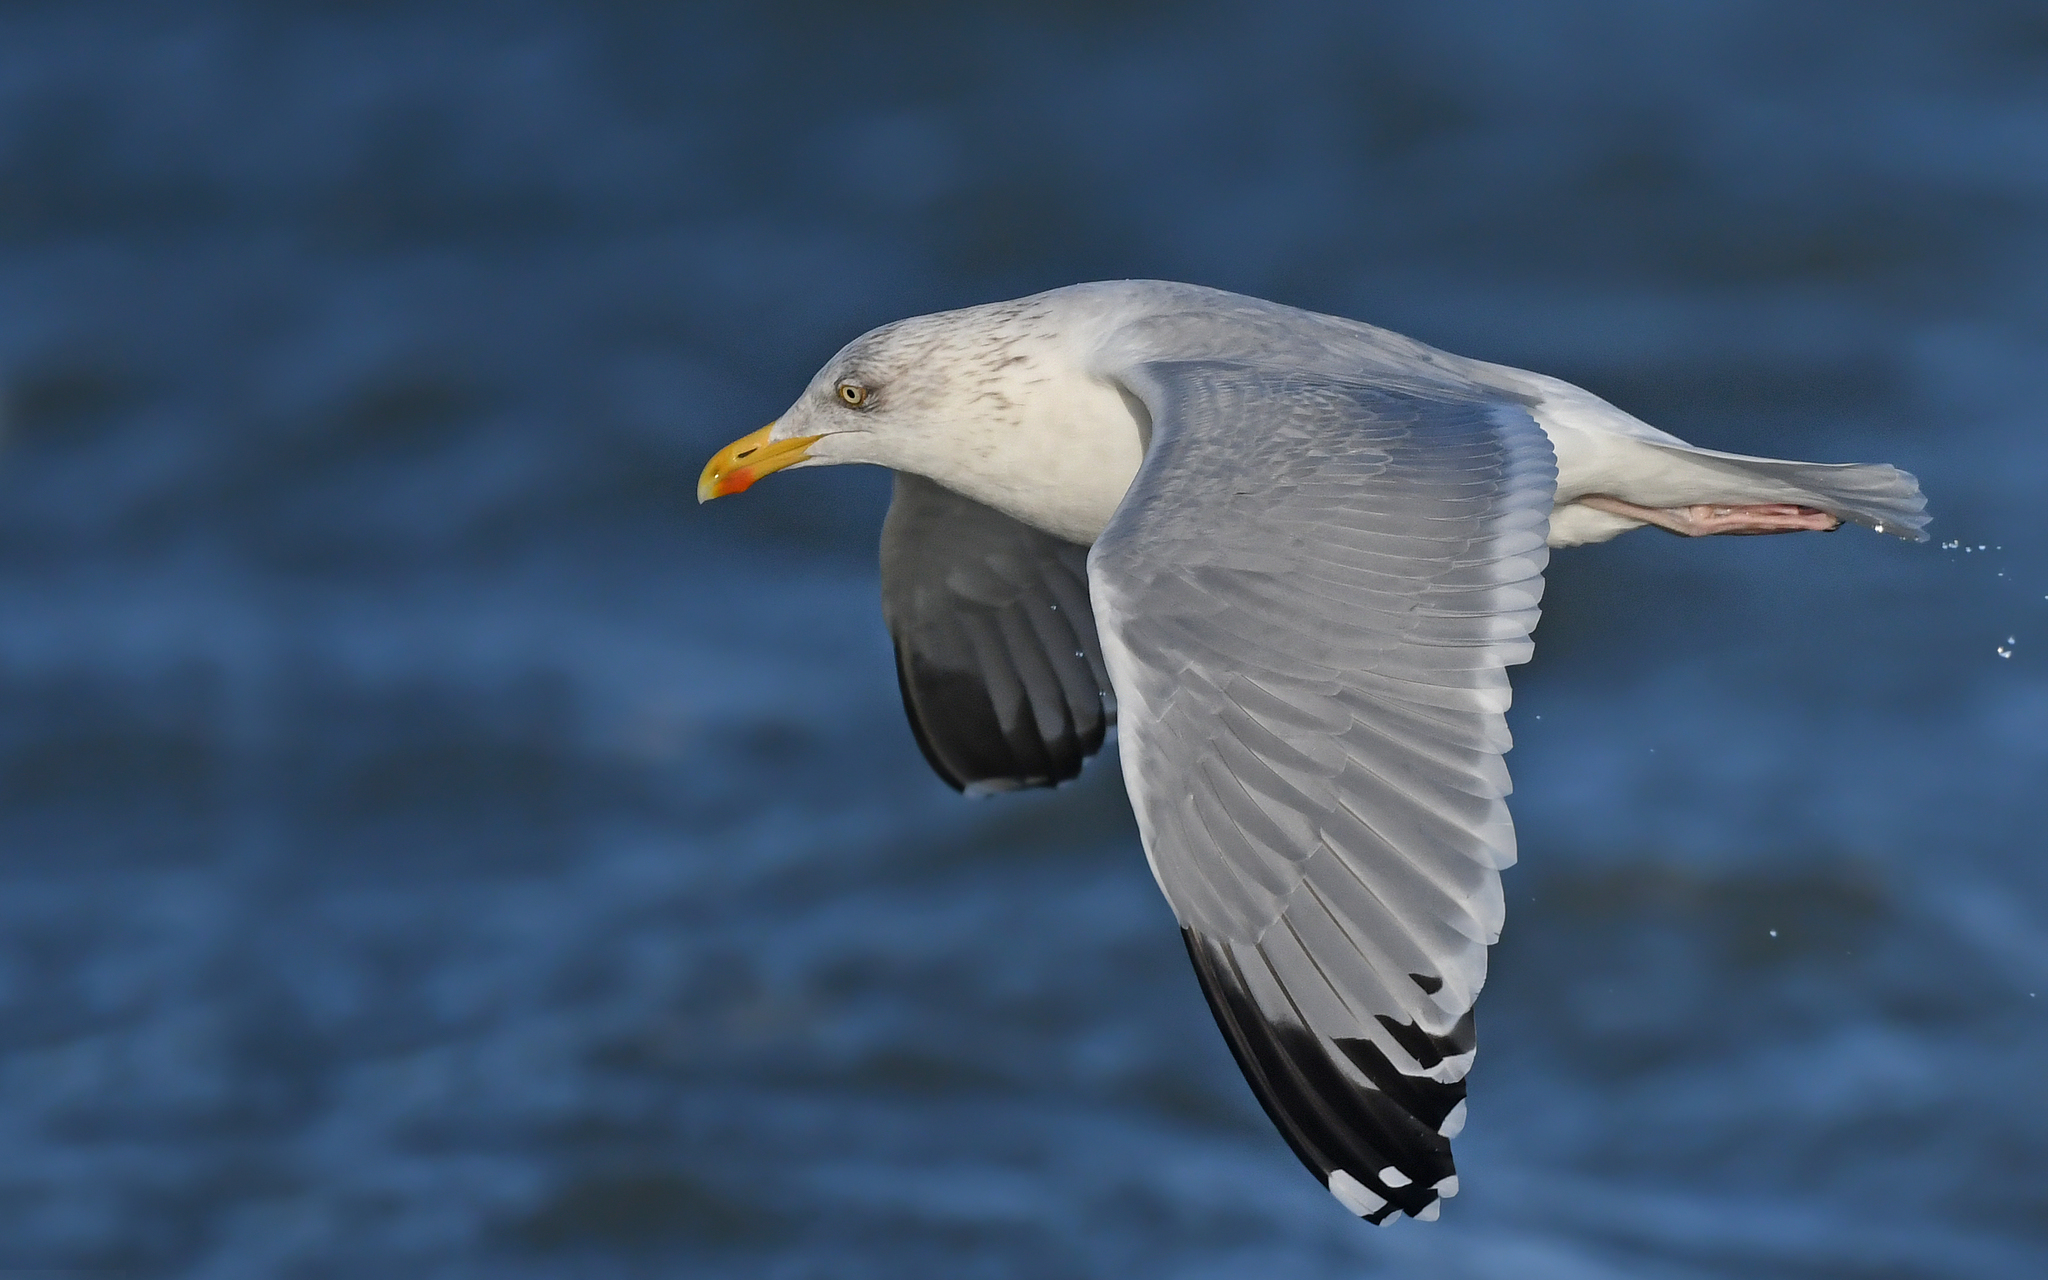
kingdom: Animalia
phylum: Chordata
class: Aves
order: Charadriiformes
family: Laridae
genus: Larus
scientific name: Larus argentatus
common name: Herring gull
